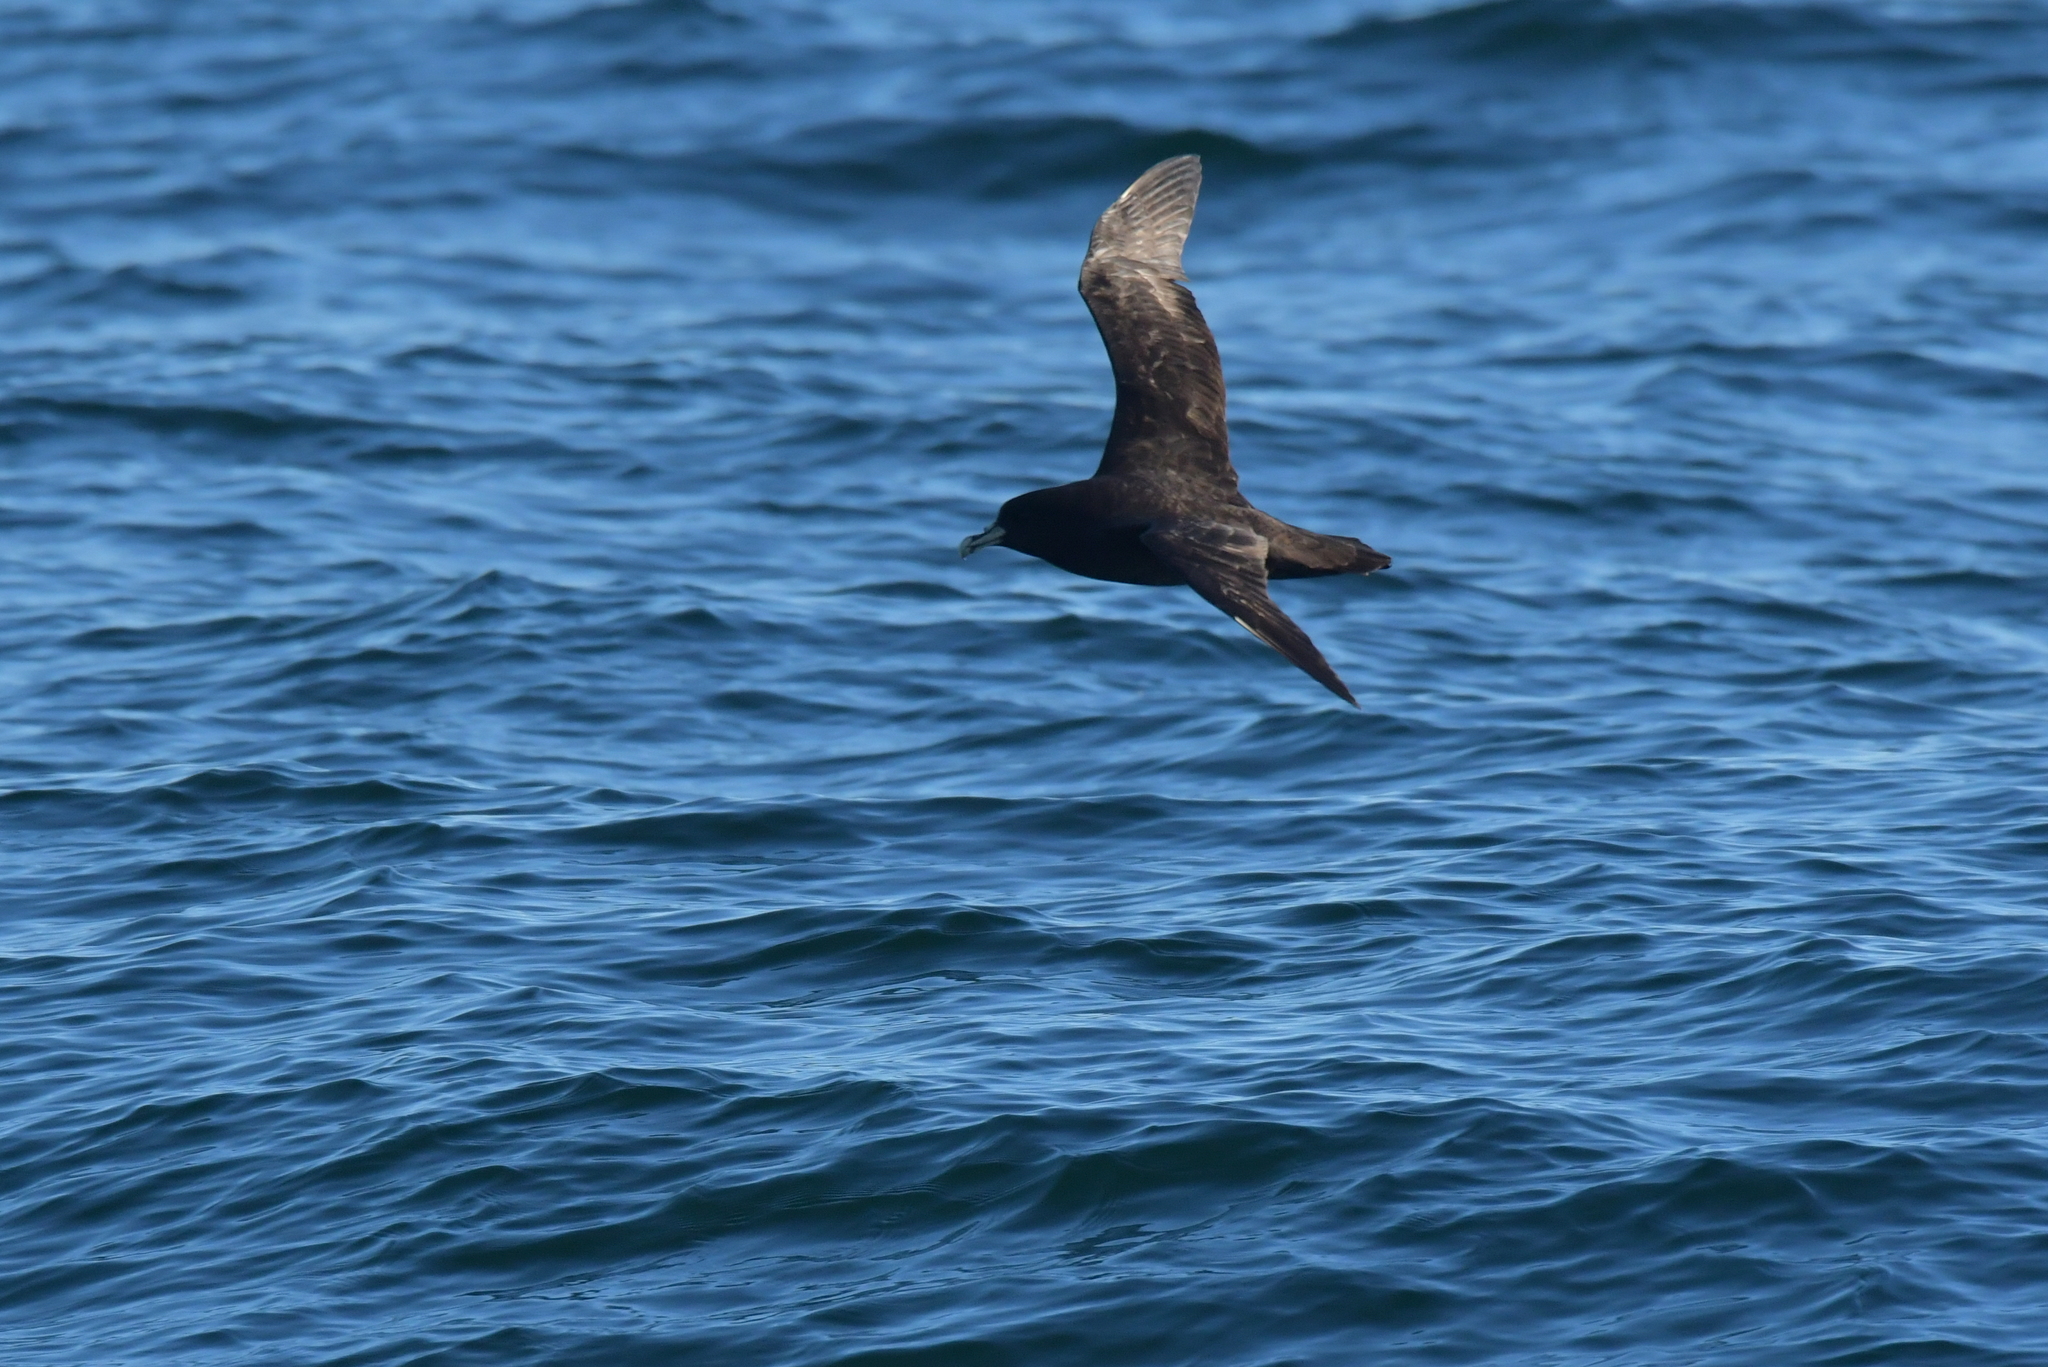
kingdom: Animalia
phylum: Chordata
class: Aves
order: Procellariiformes
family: Procellariidae
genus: Procellaria
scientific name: Procellaria aequinoctialis
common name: White-chinned petrel
